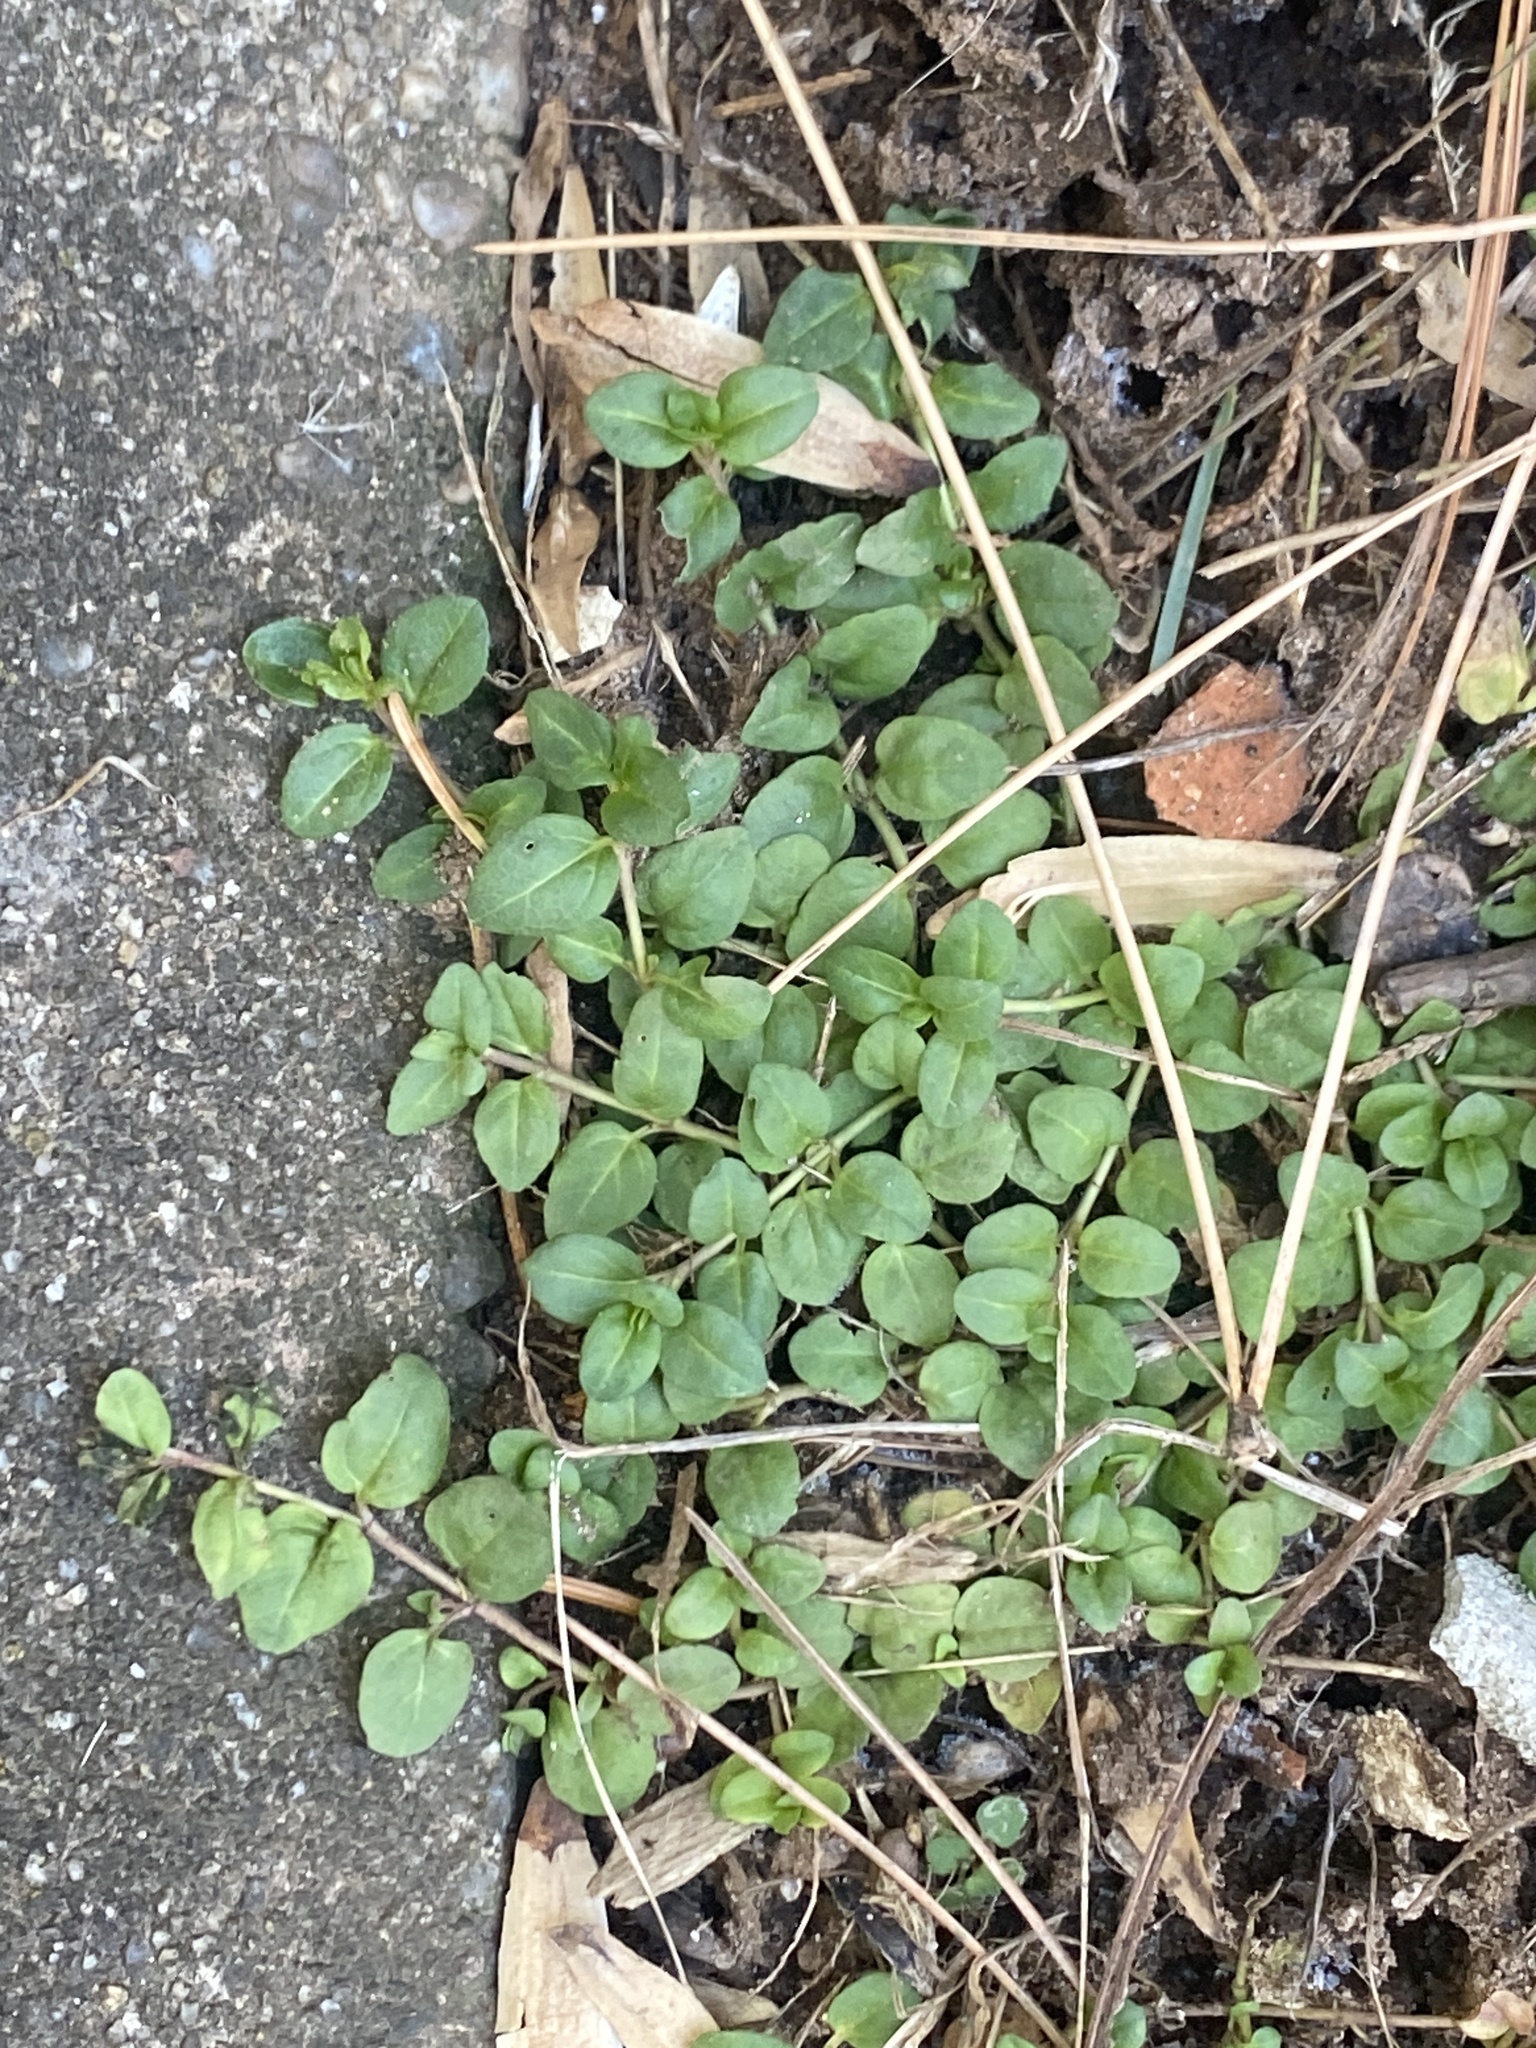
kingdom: Plantae
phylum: Tracheophyta
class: Magnoliopsida
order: Lamiales
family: Plantaginaceae
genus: Veronica
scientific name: Veronica serpyllifolia
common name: Thyme-leaved speedwell
